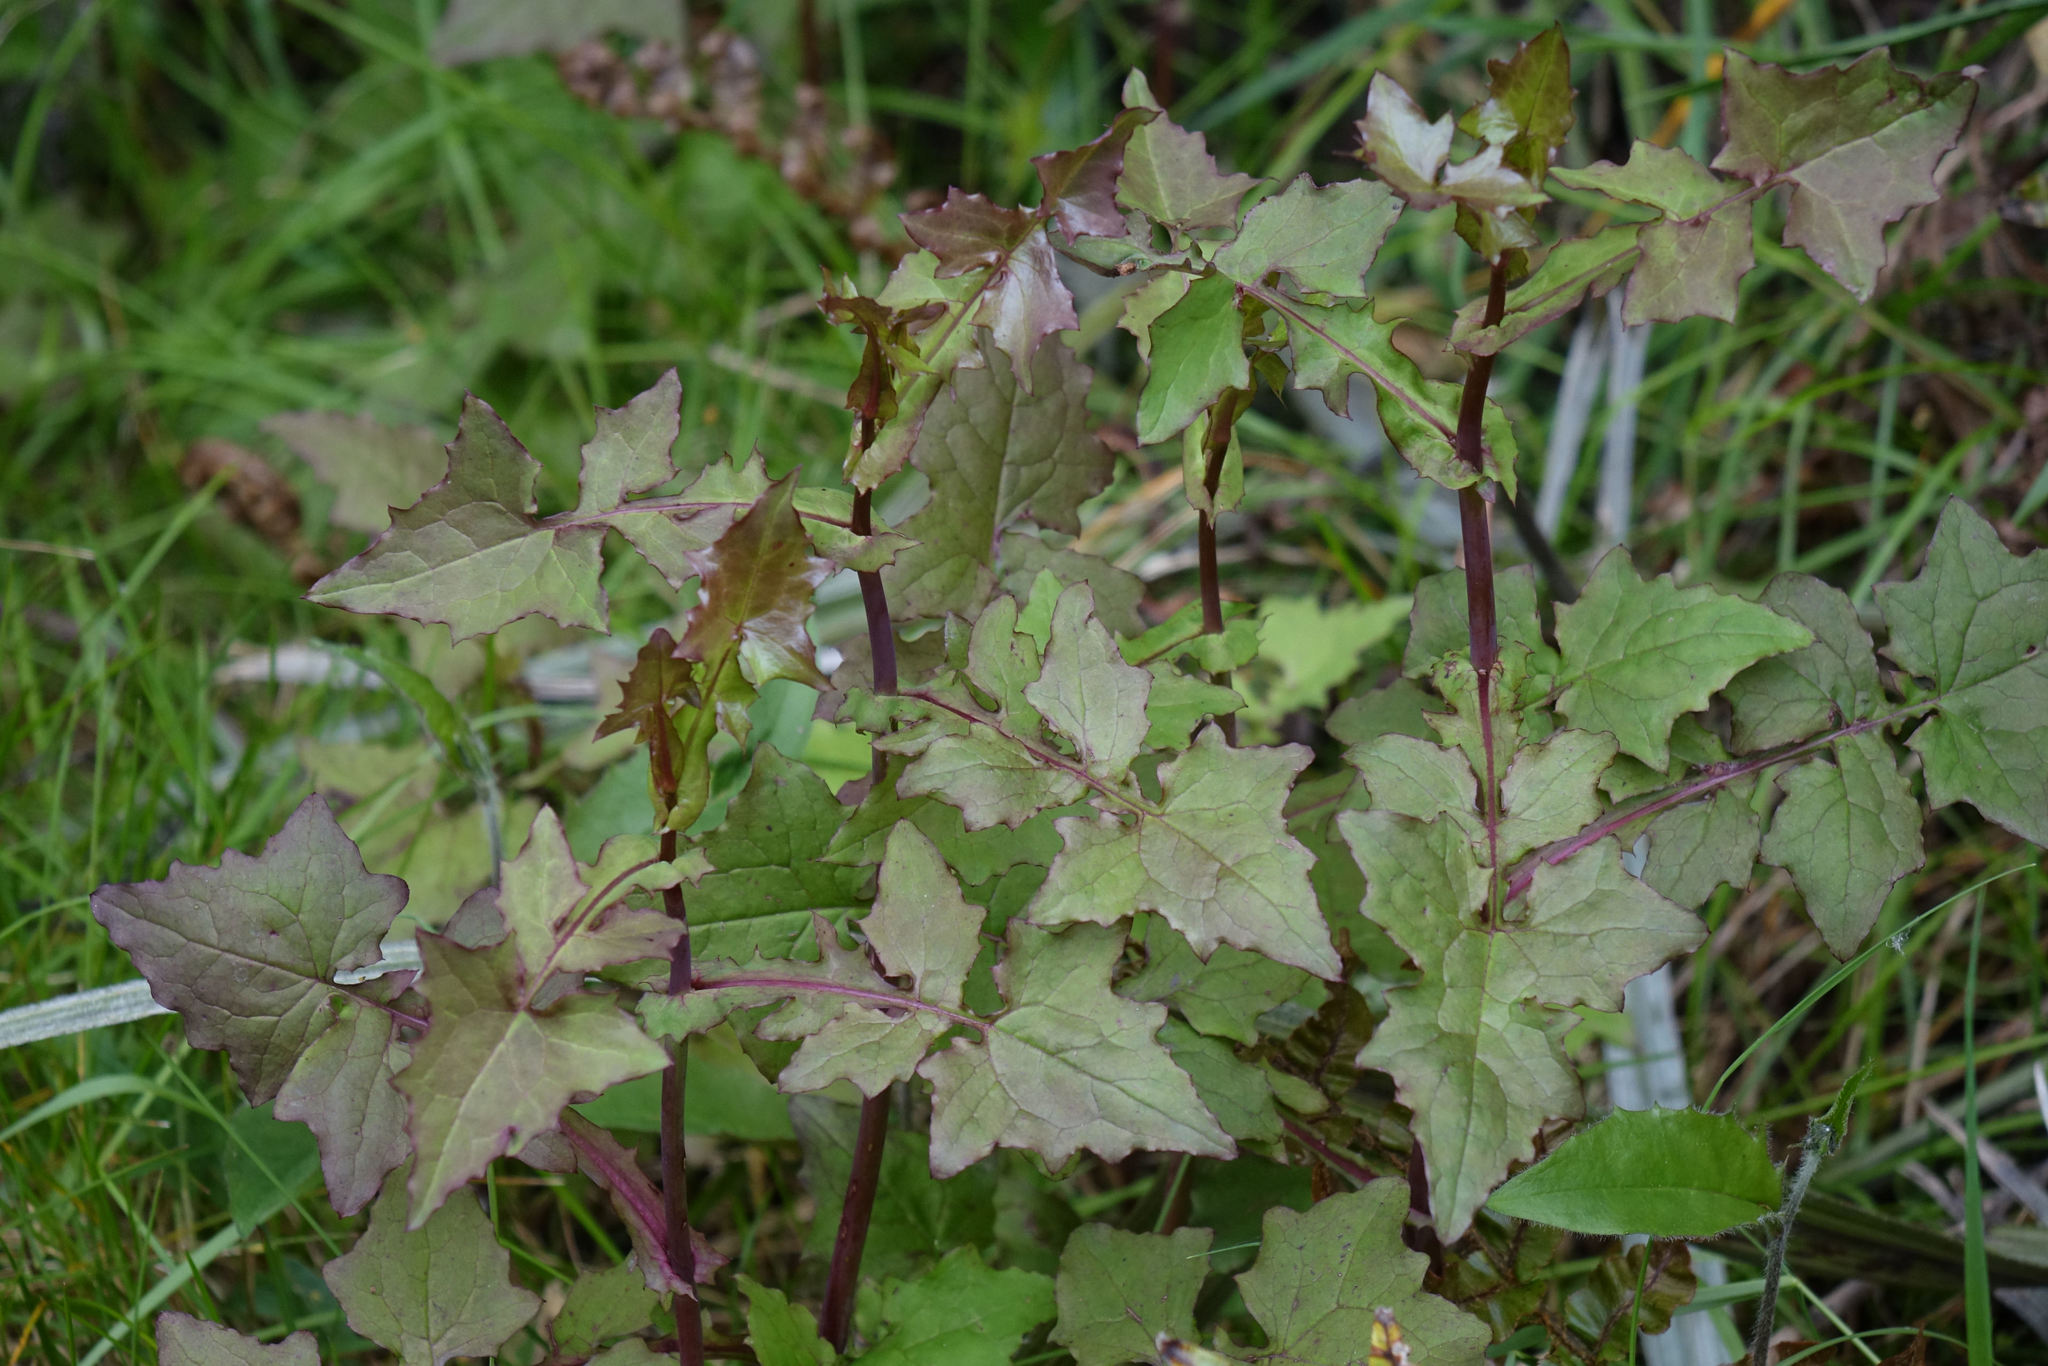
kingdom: Plantae
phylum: Tracheophyta
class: Magnoliopsida
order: Asterales
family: Asteraceae
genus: Mycelis
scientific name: Mycelis muralis
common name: Wall lettuce
